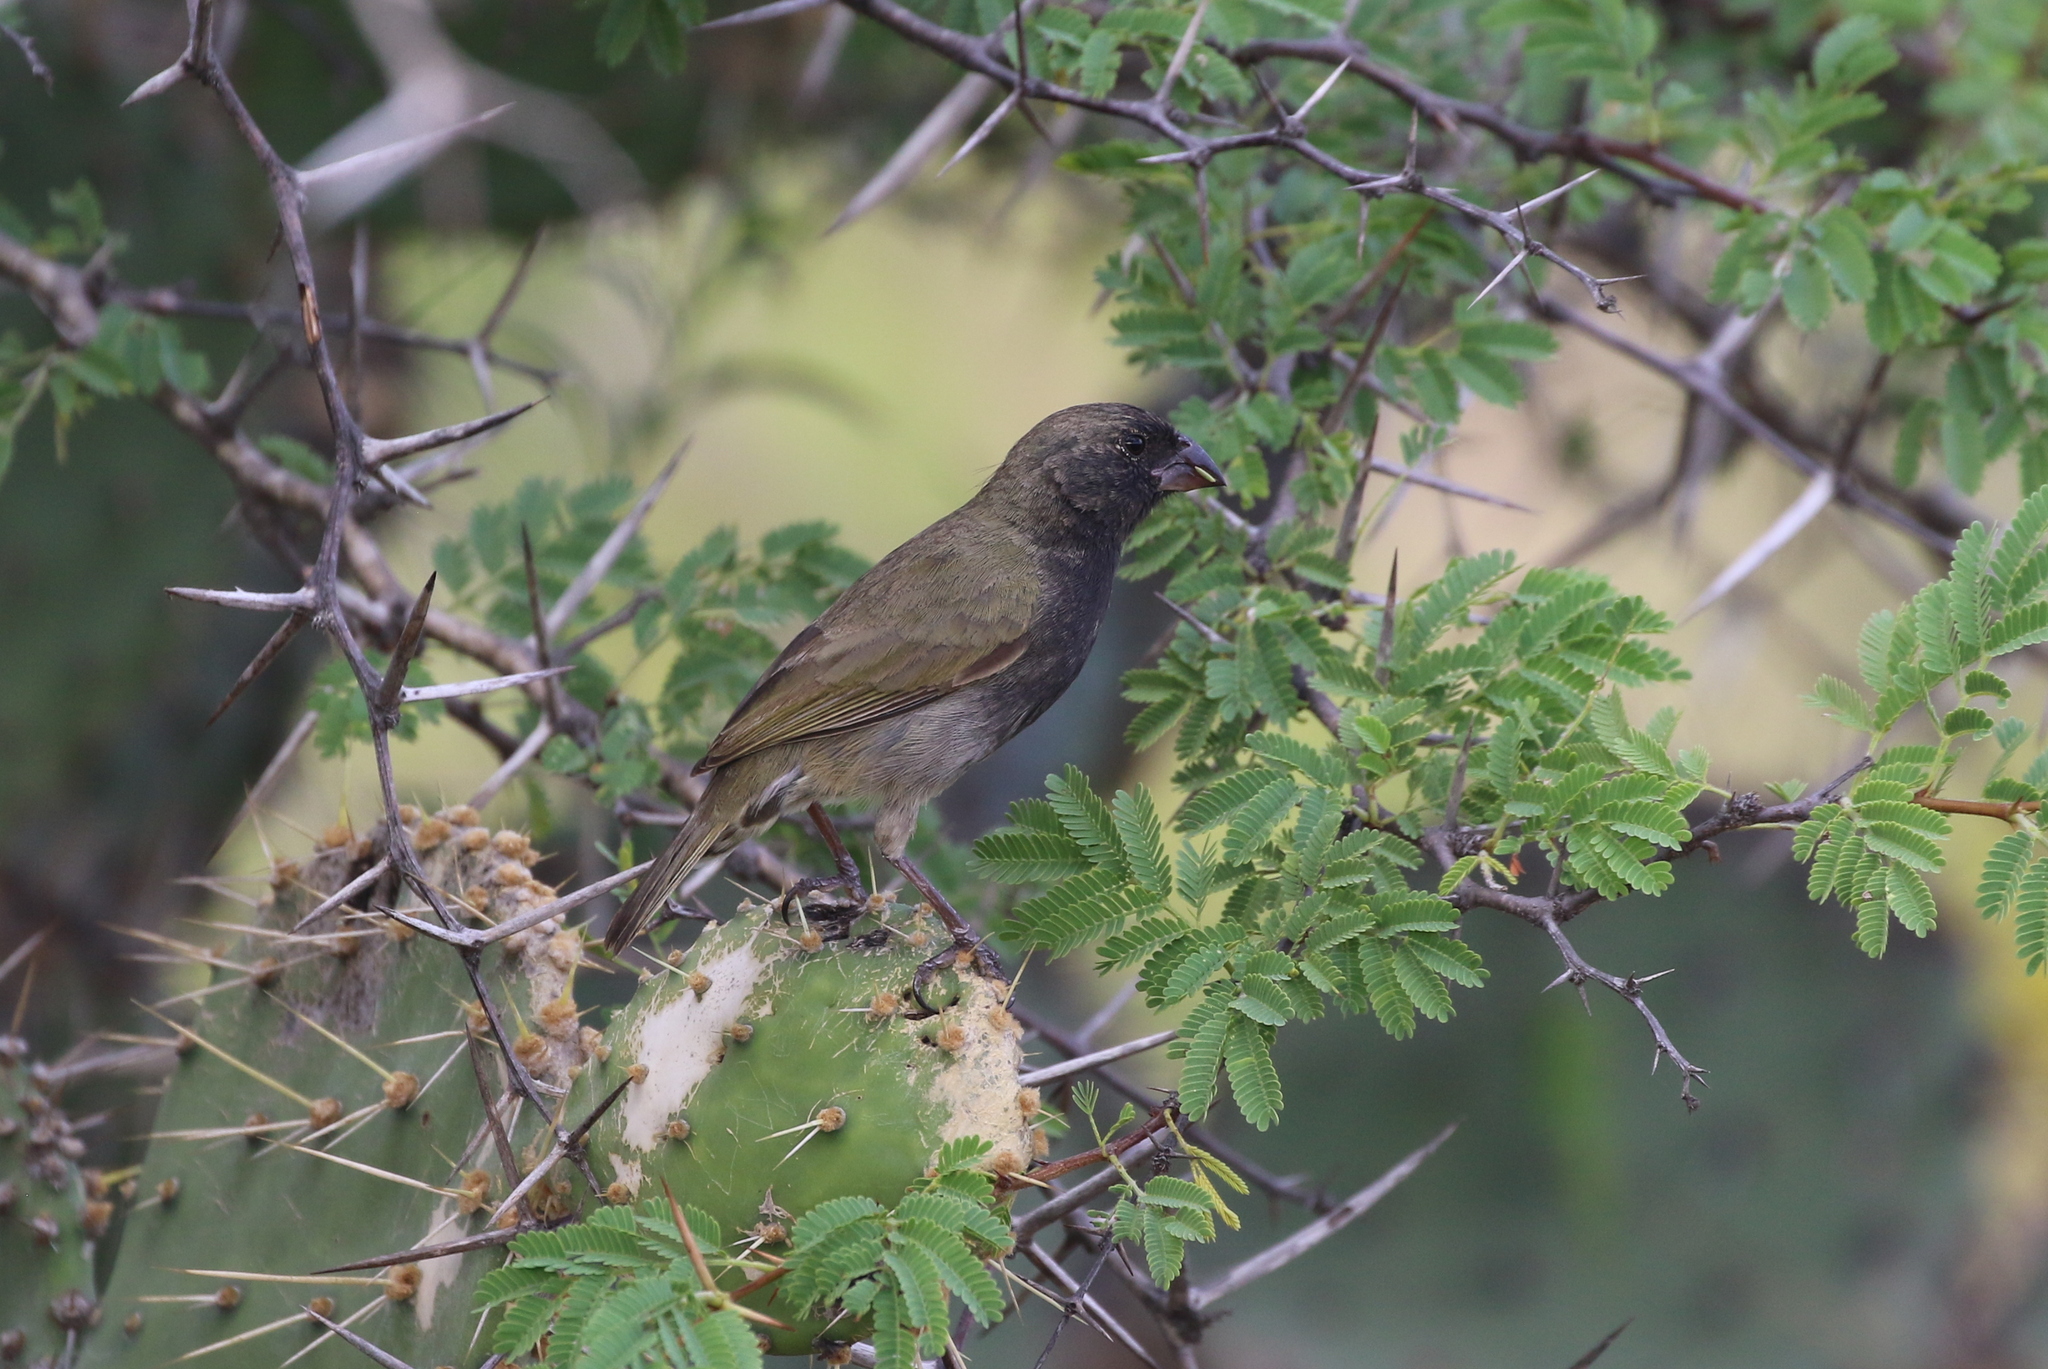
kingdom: Animalia
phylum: Chordata
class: Aves
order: Passeriformes
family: Thraupidae
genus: Melanospiza
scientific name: Melanospiza bicolor
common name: Black-faced grassquit
